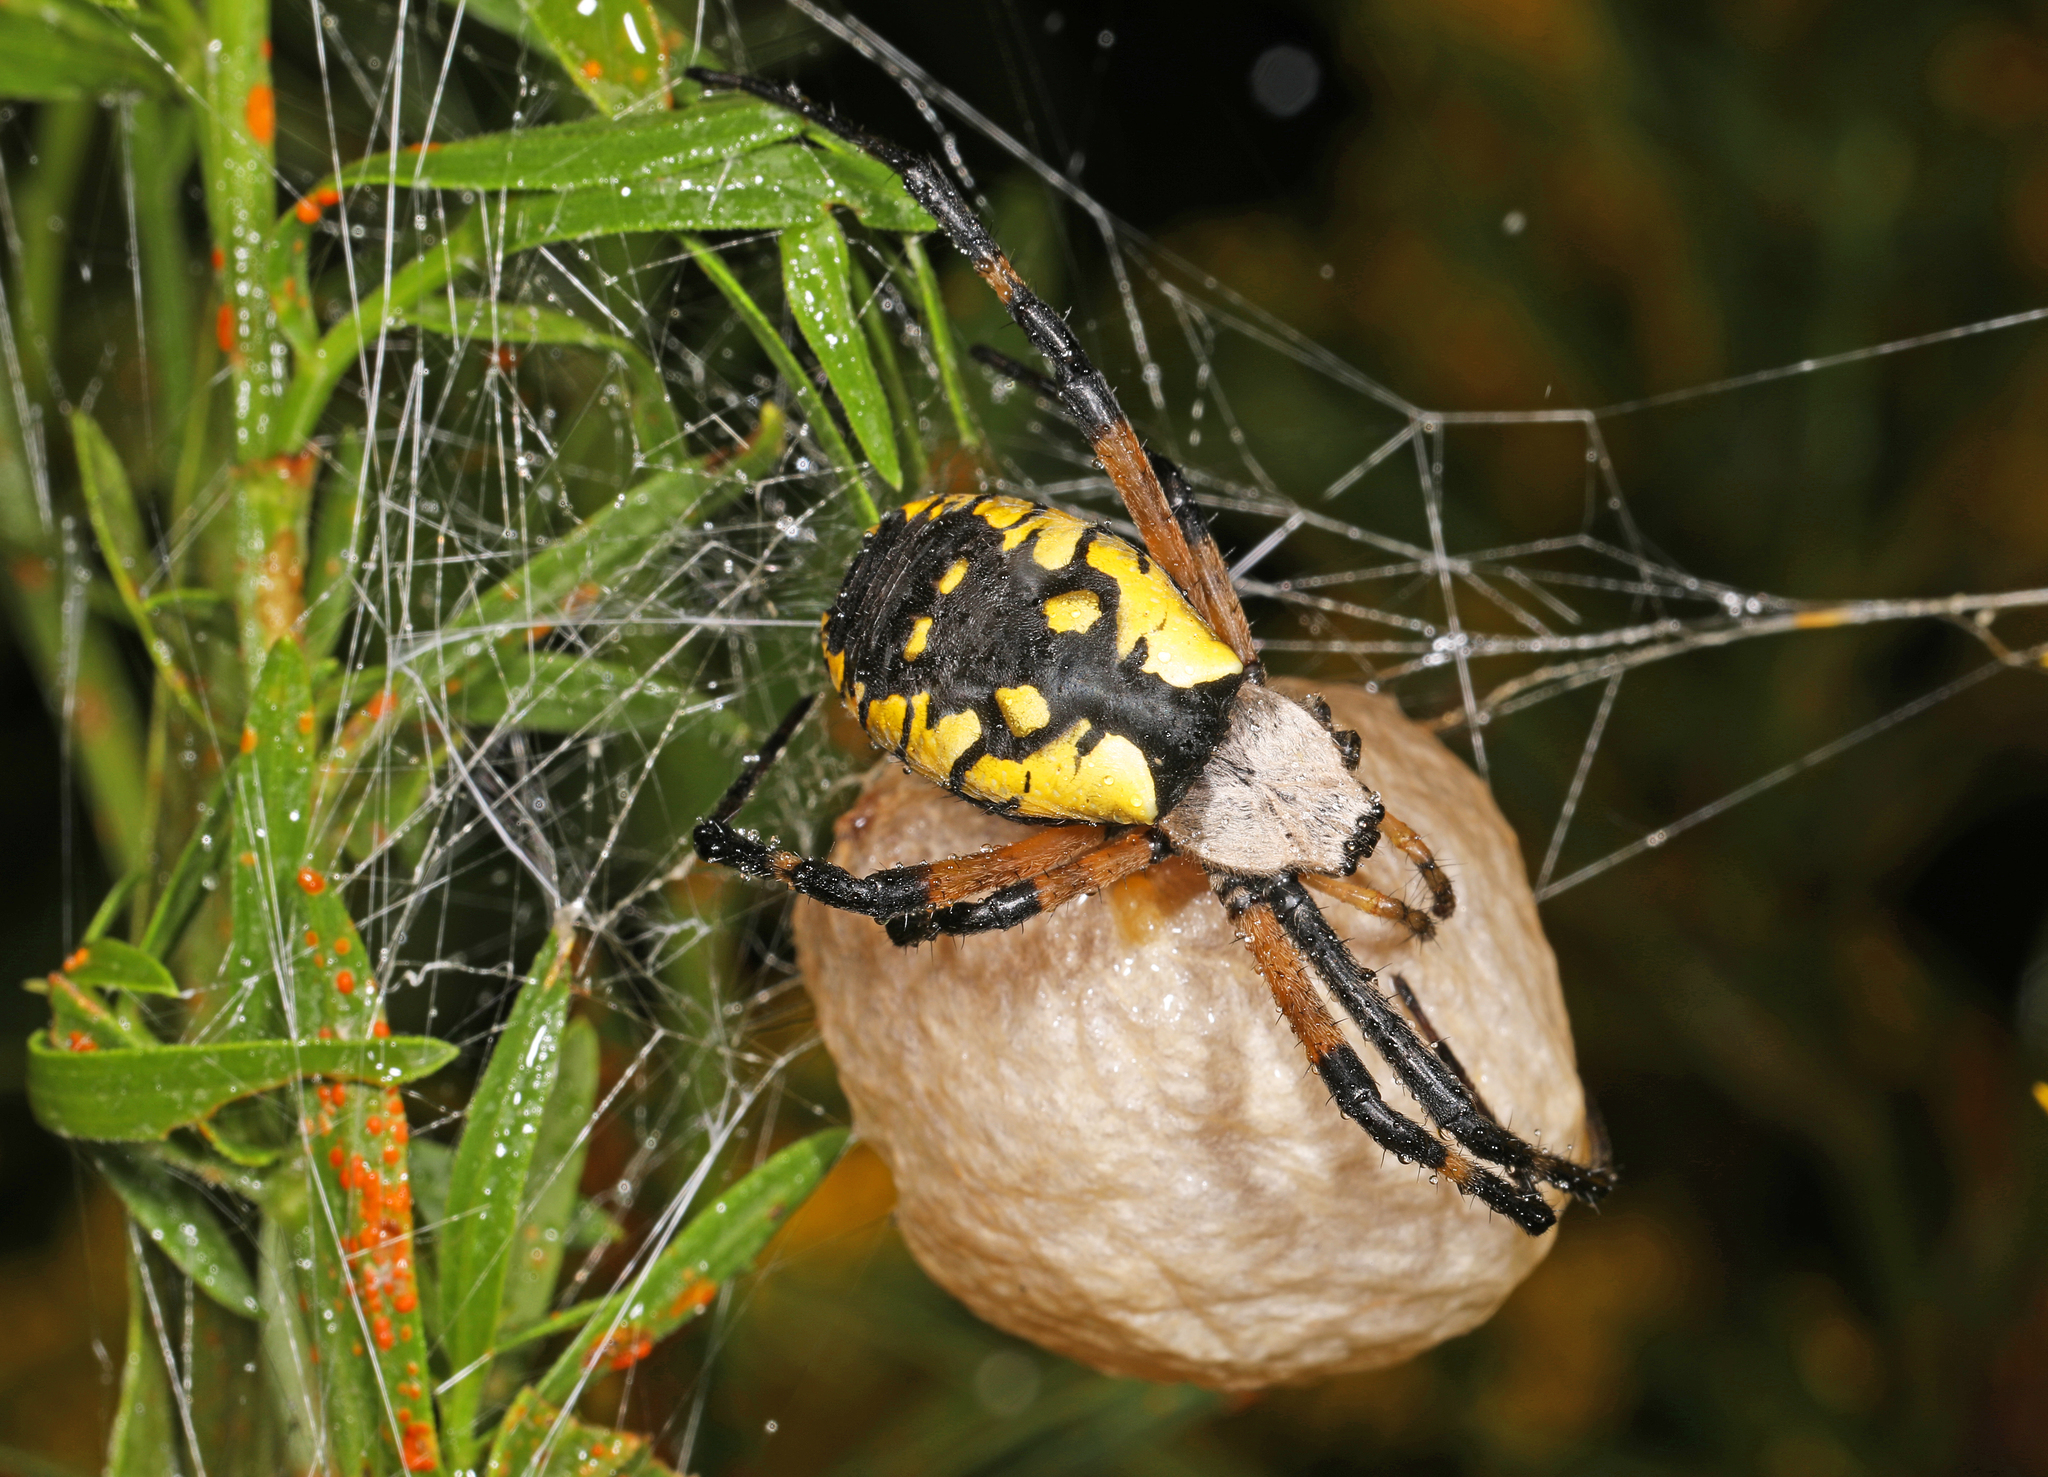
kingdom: Animalia
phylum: Arthropoda
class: Arachnida
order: Araneae
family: Araneidae
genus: Argiope
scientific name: Argiope aurantia
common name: Orb weavers
